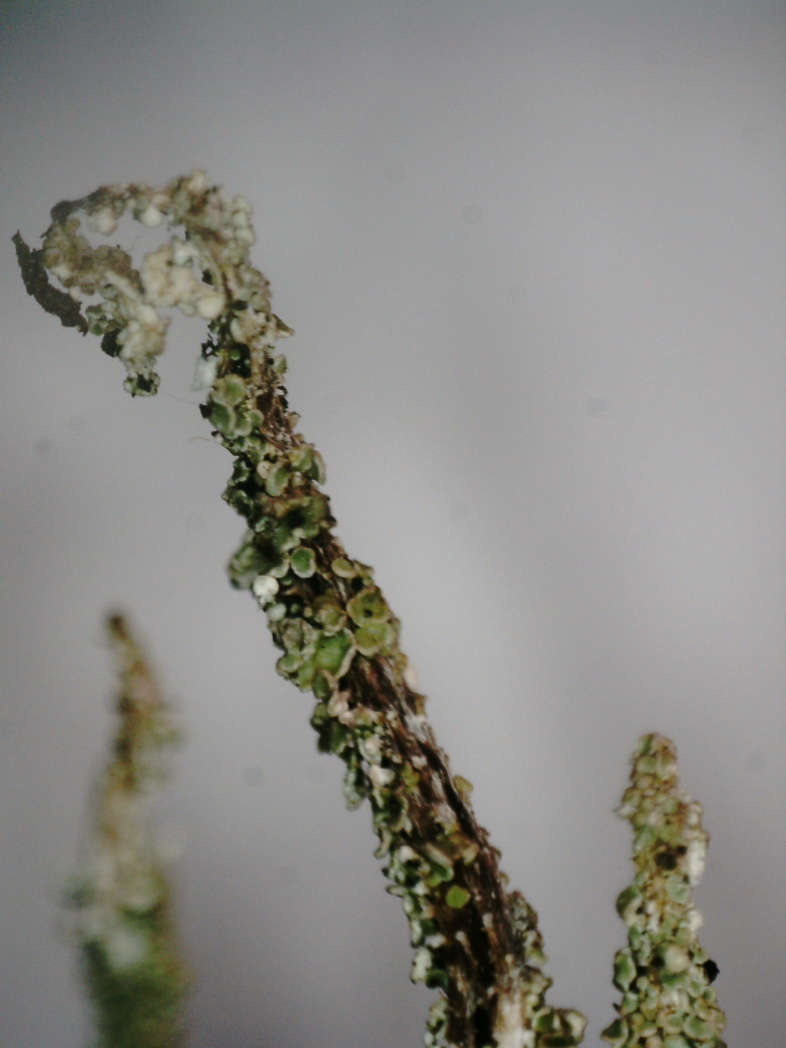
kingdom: Fungi
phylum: Ascomycota
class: Lecanoromycetes
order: Lecanorales
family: Cladoniaceae
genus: Cladonia
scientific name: Cladonia macrophylla
